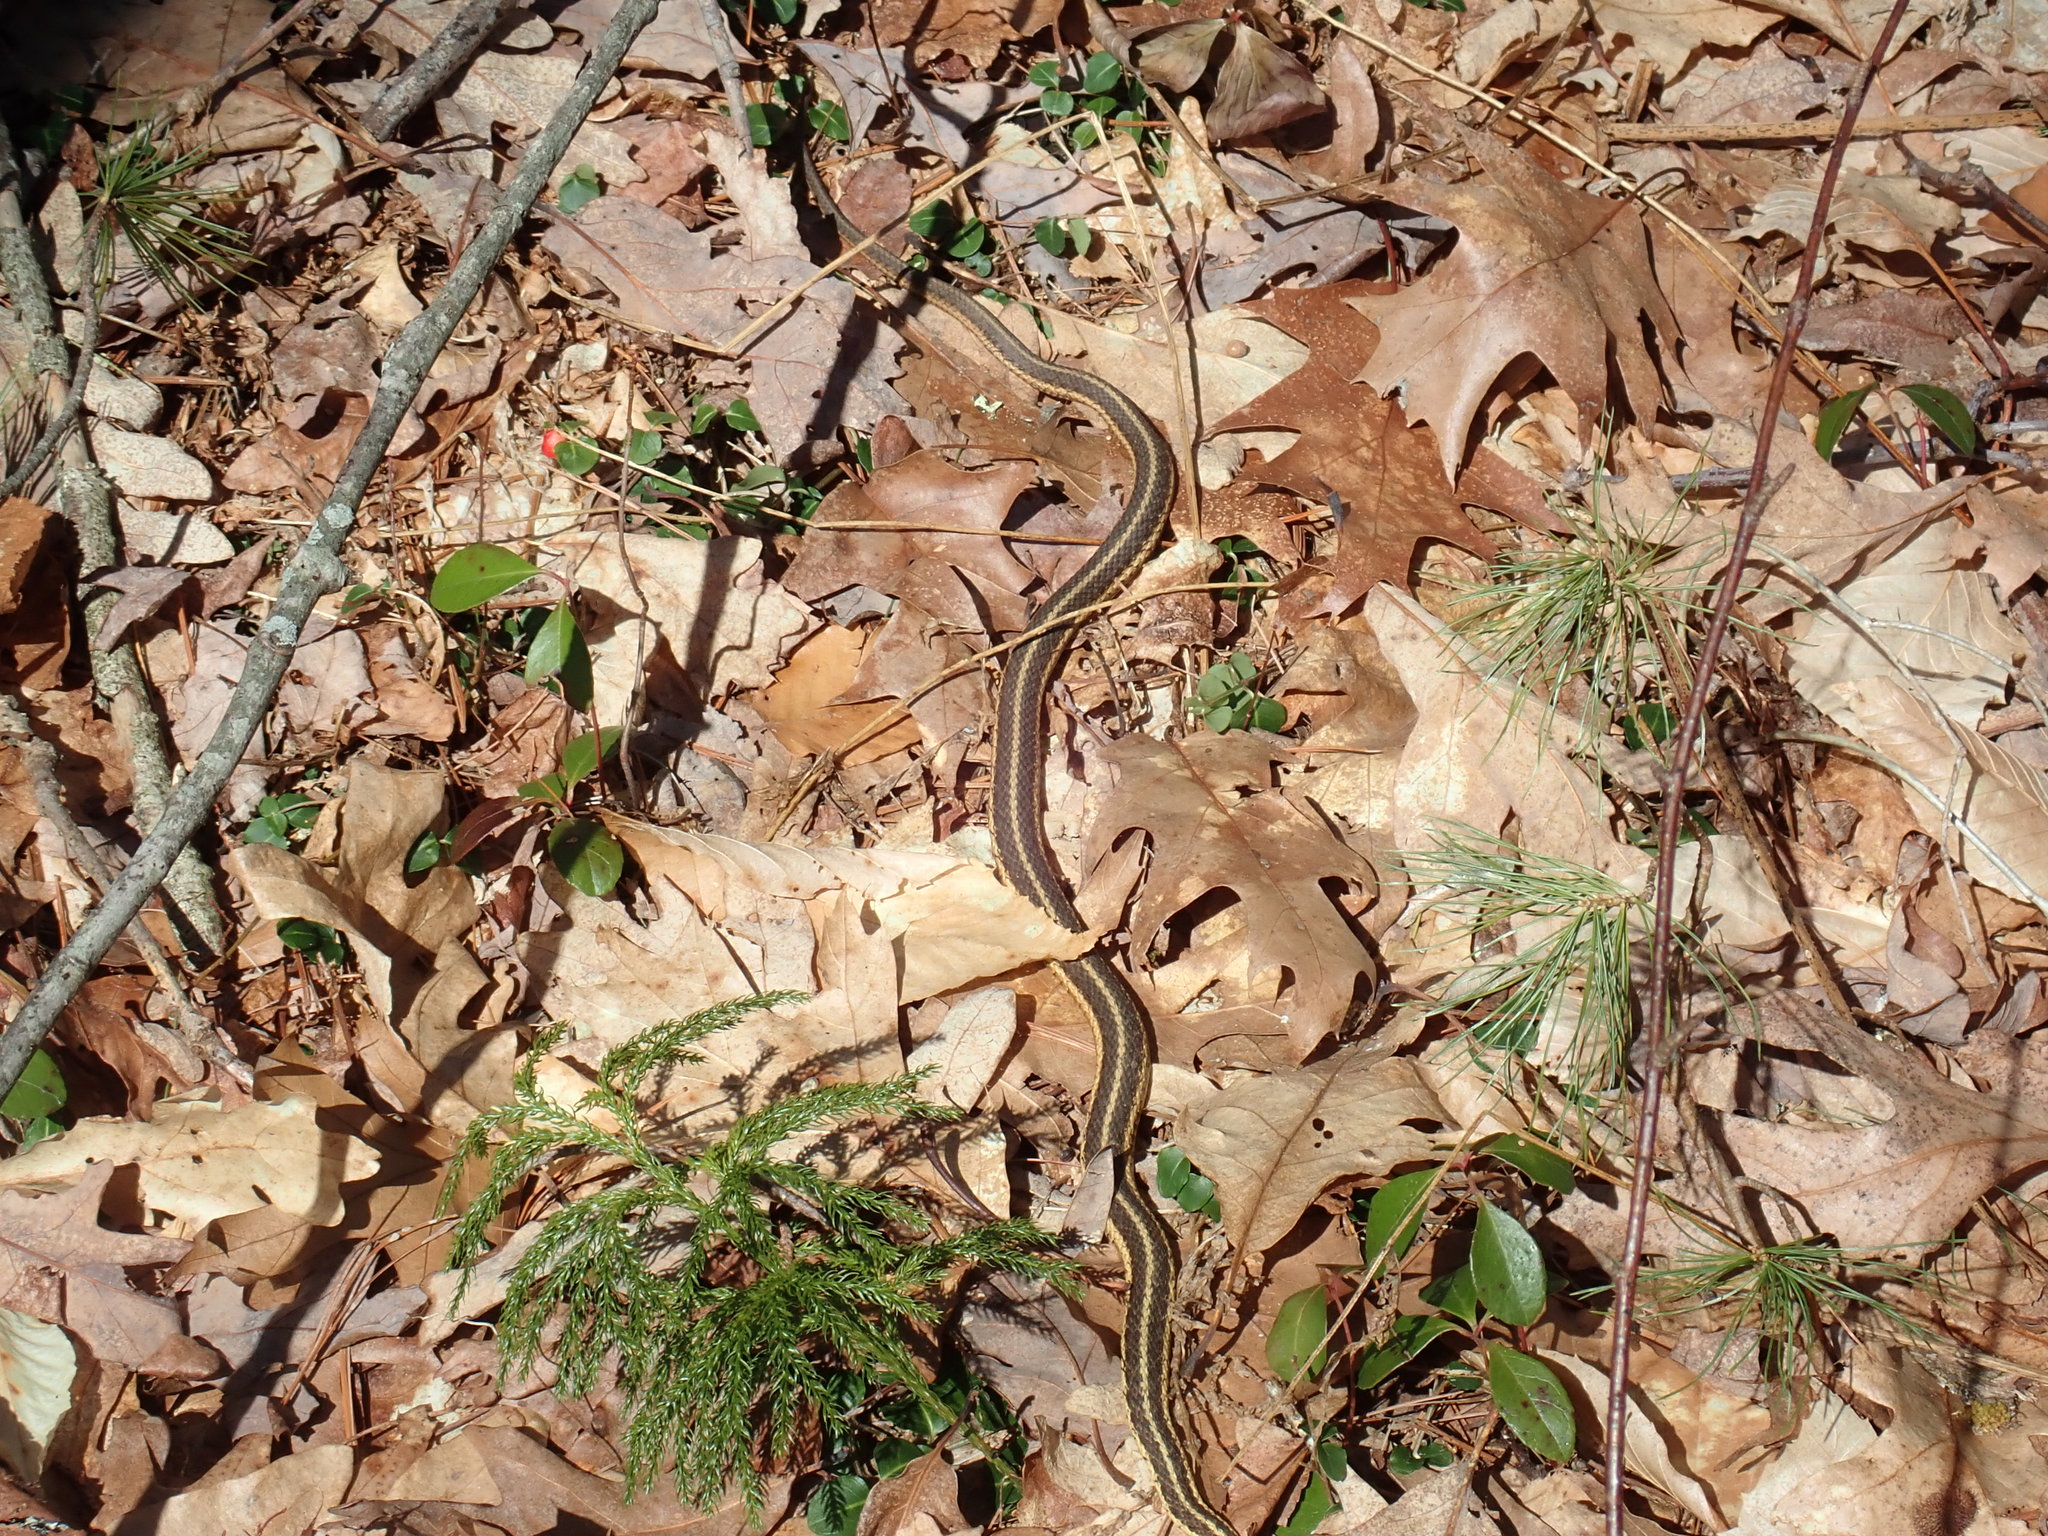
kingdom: Animalia
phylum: Chordata
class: Squamata
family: Colubridae
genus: Thamnophis
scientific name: Thamnophis sirtalis
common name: Common garter snake
